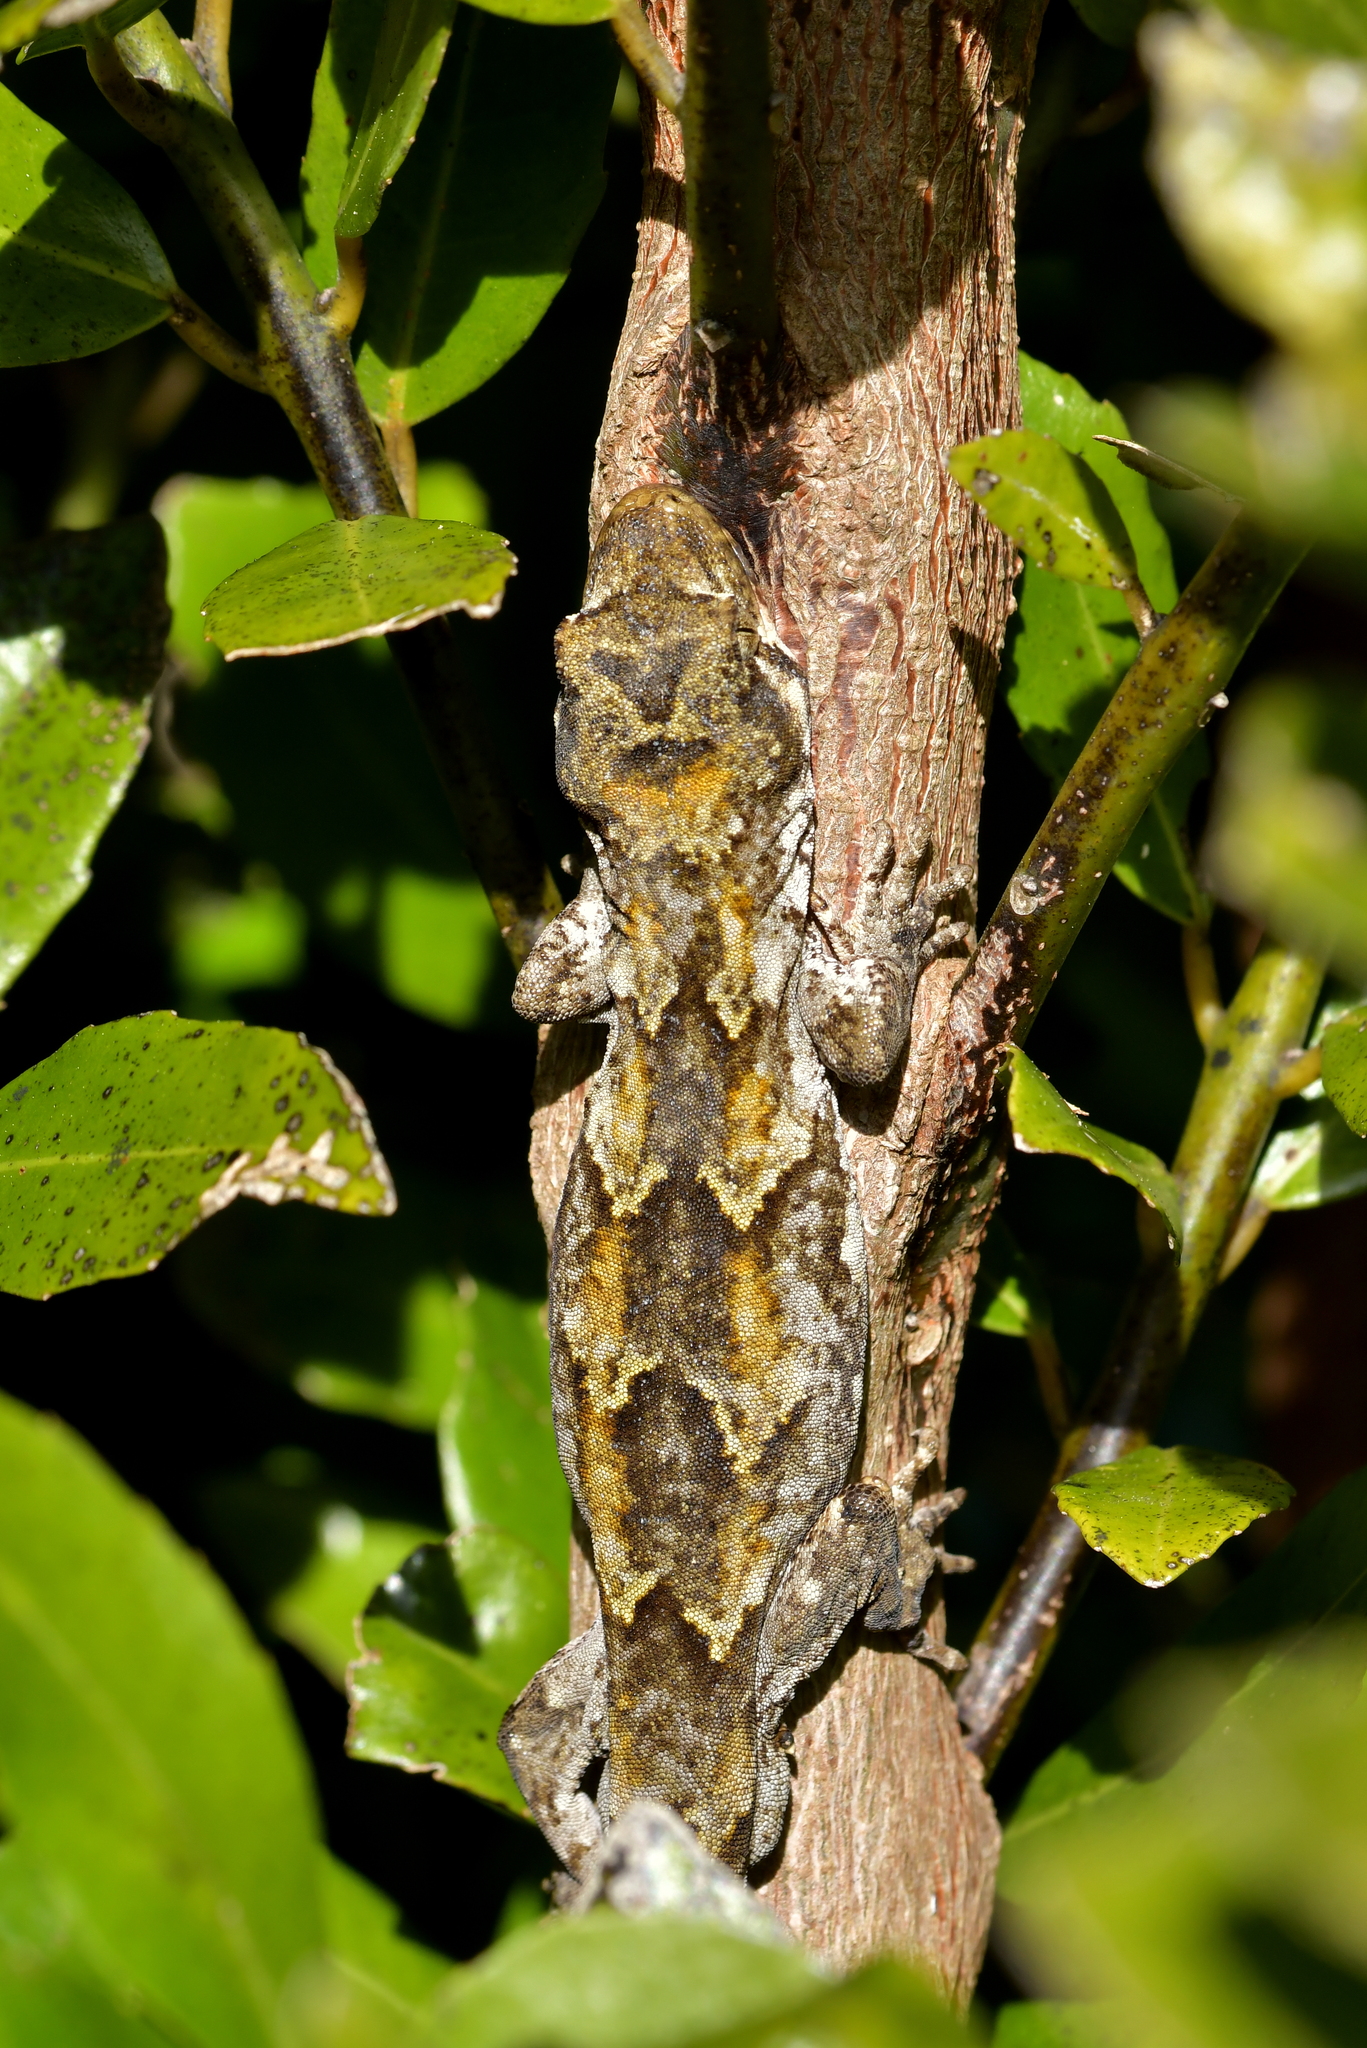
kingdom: Animalia
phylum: Chordata
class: Squamata
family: Diplodactylidae
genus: Mokopirirakau
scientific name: Mokopirirakau
